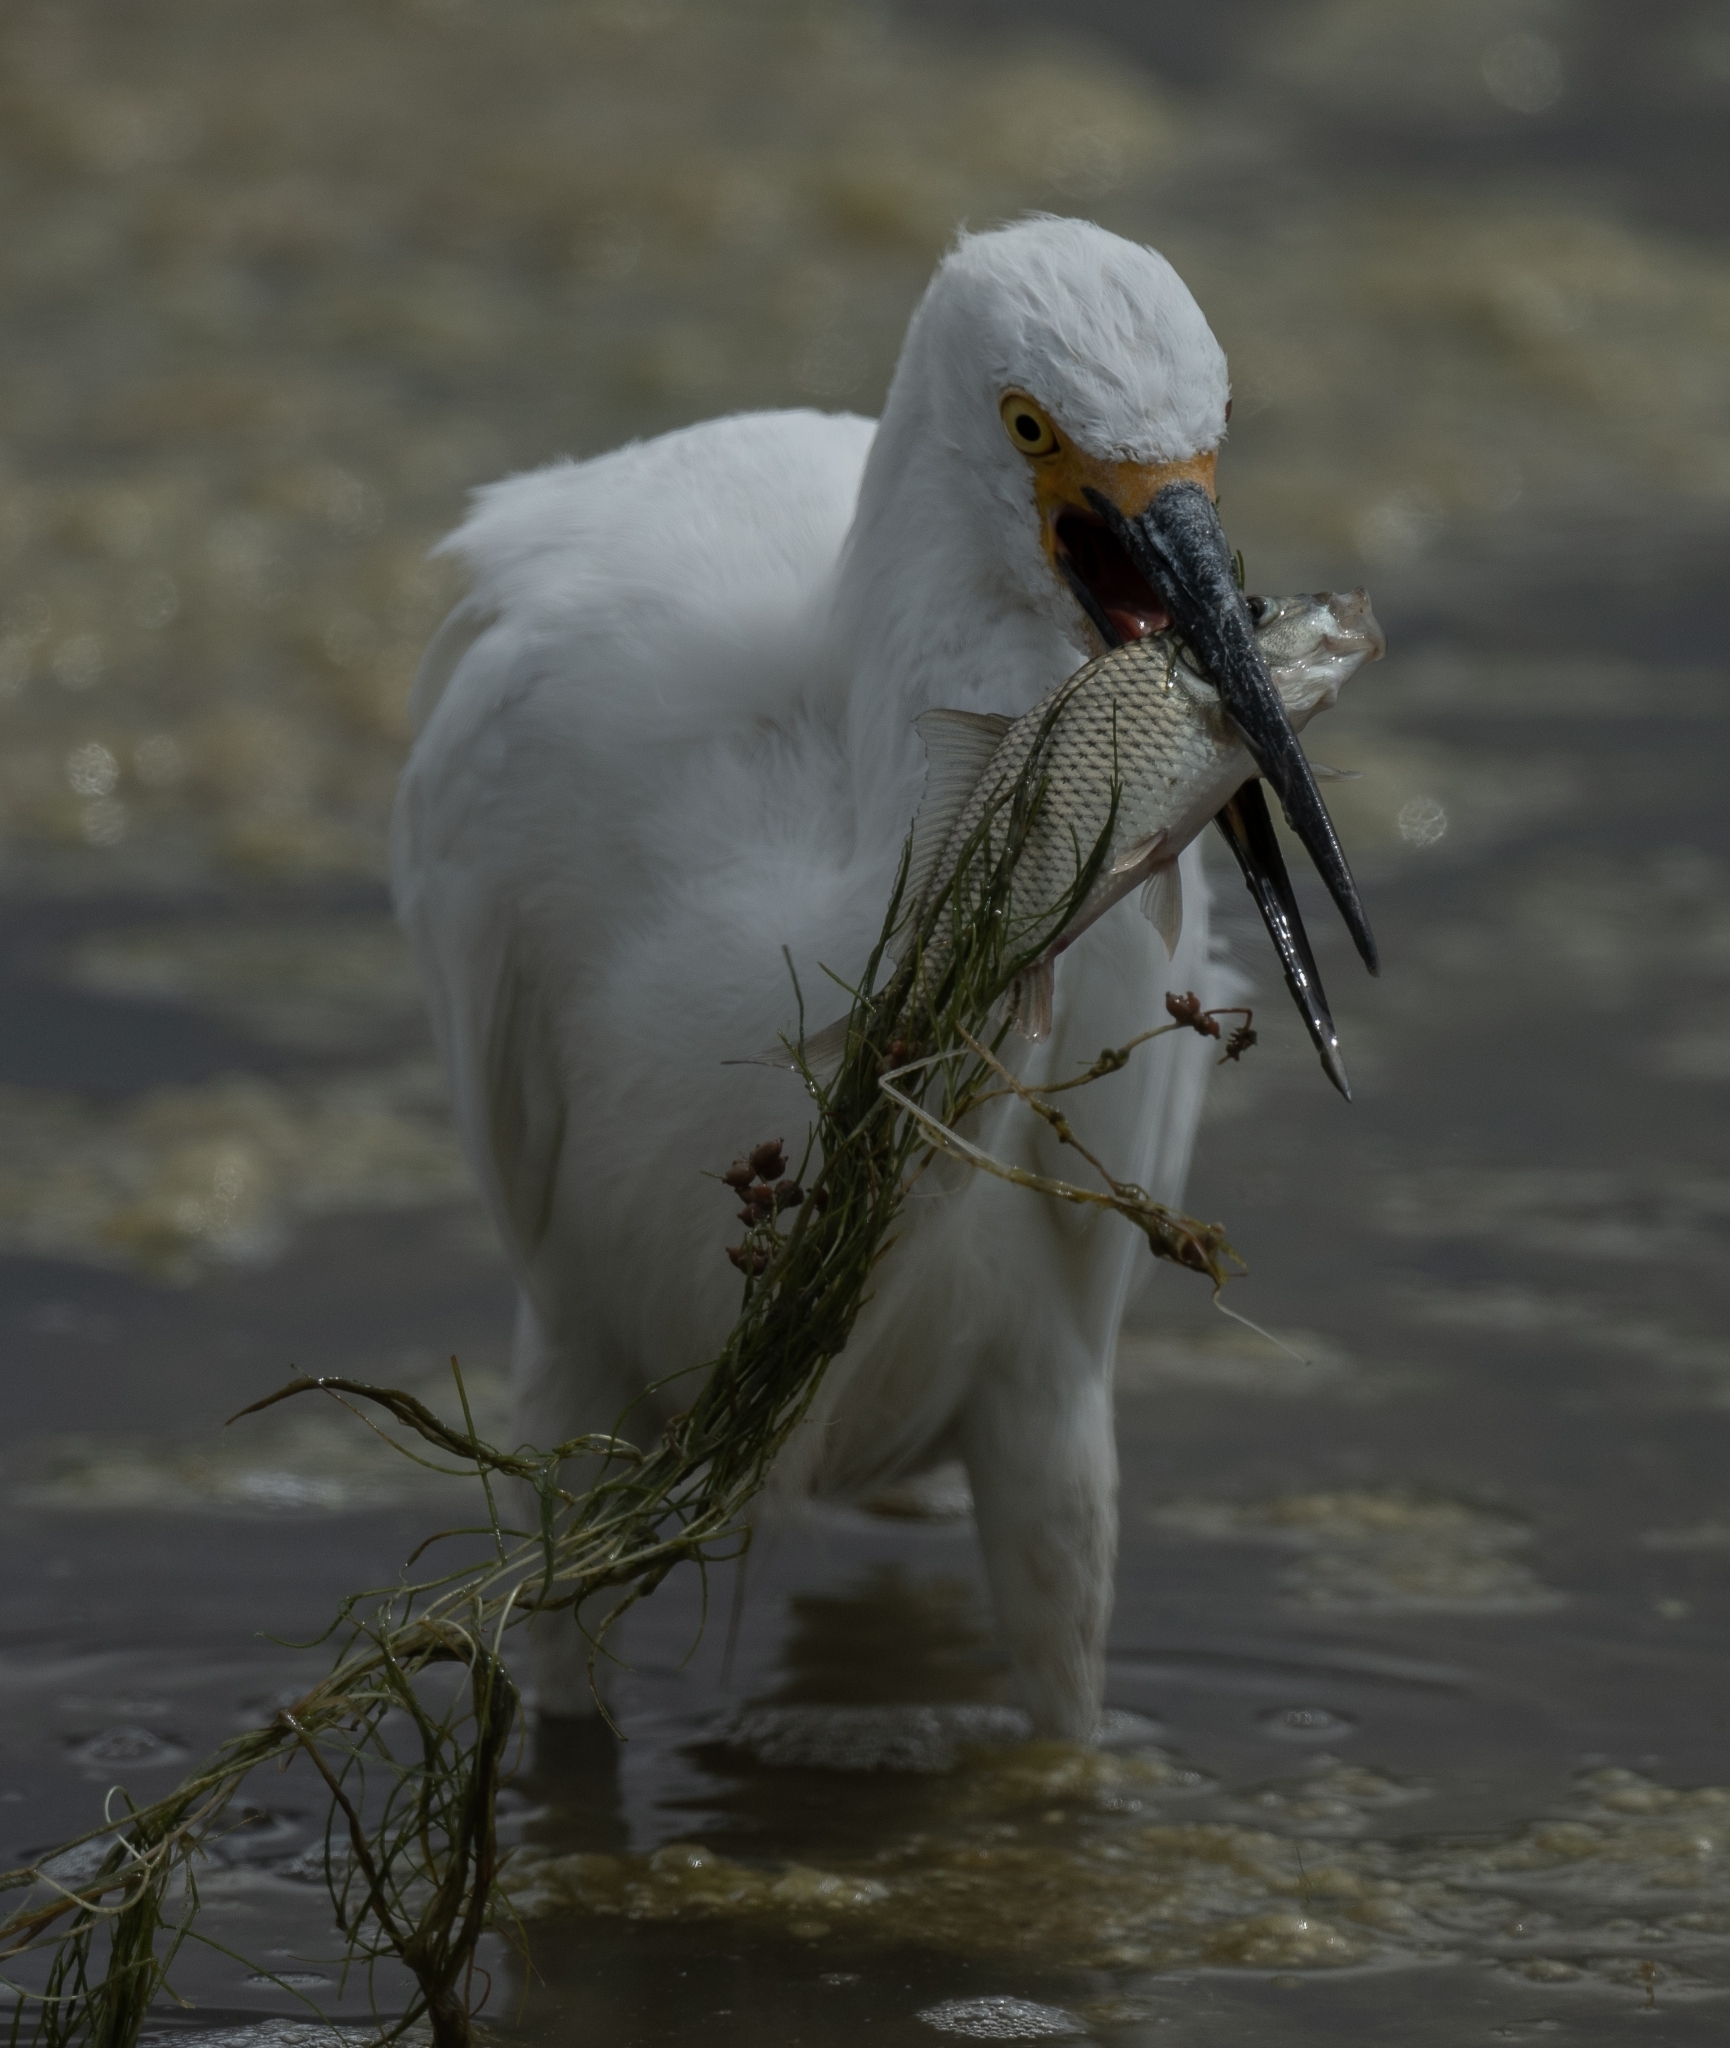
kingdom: Animalia
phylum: Chordata
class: Aves
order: Pelecaniformes
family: Ardeidae
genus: Egretta
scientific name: Egretta thula
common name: Snowy egret
